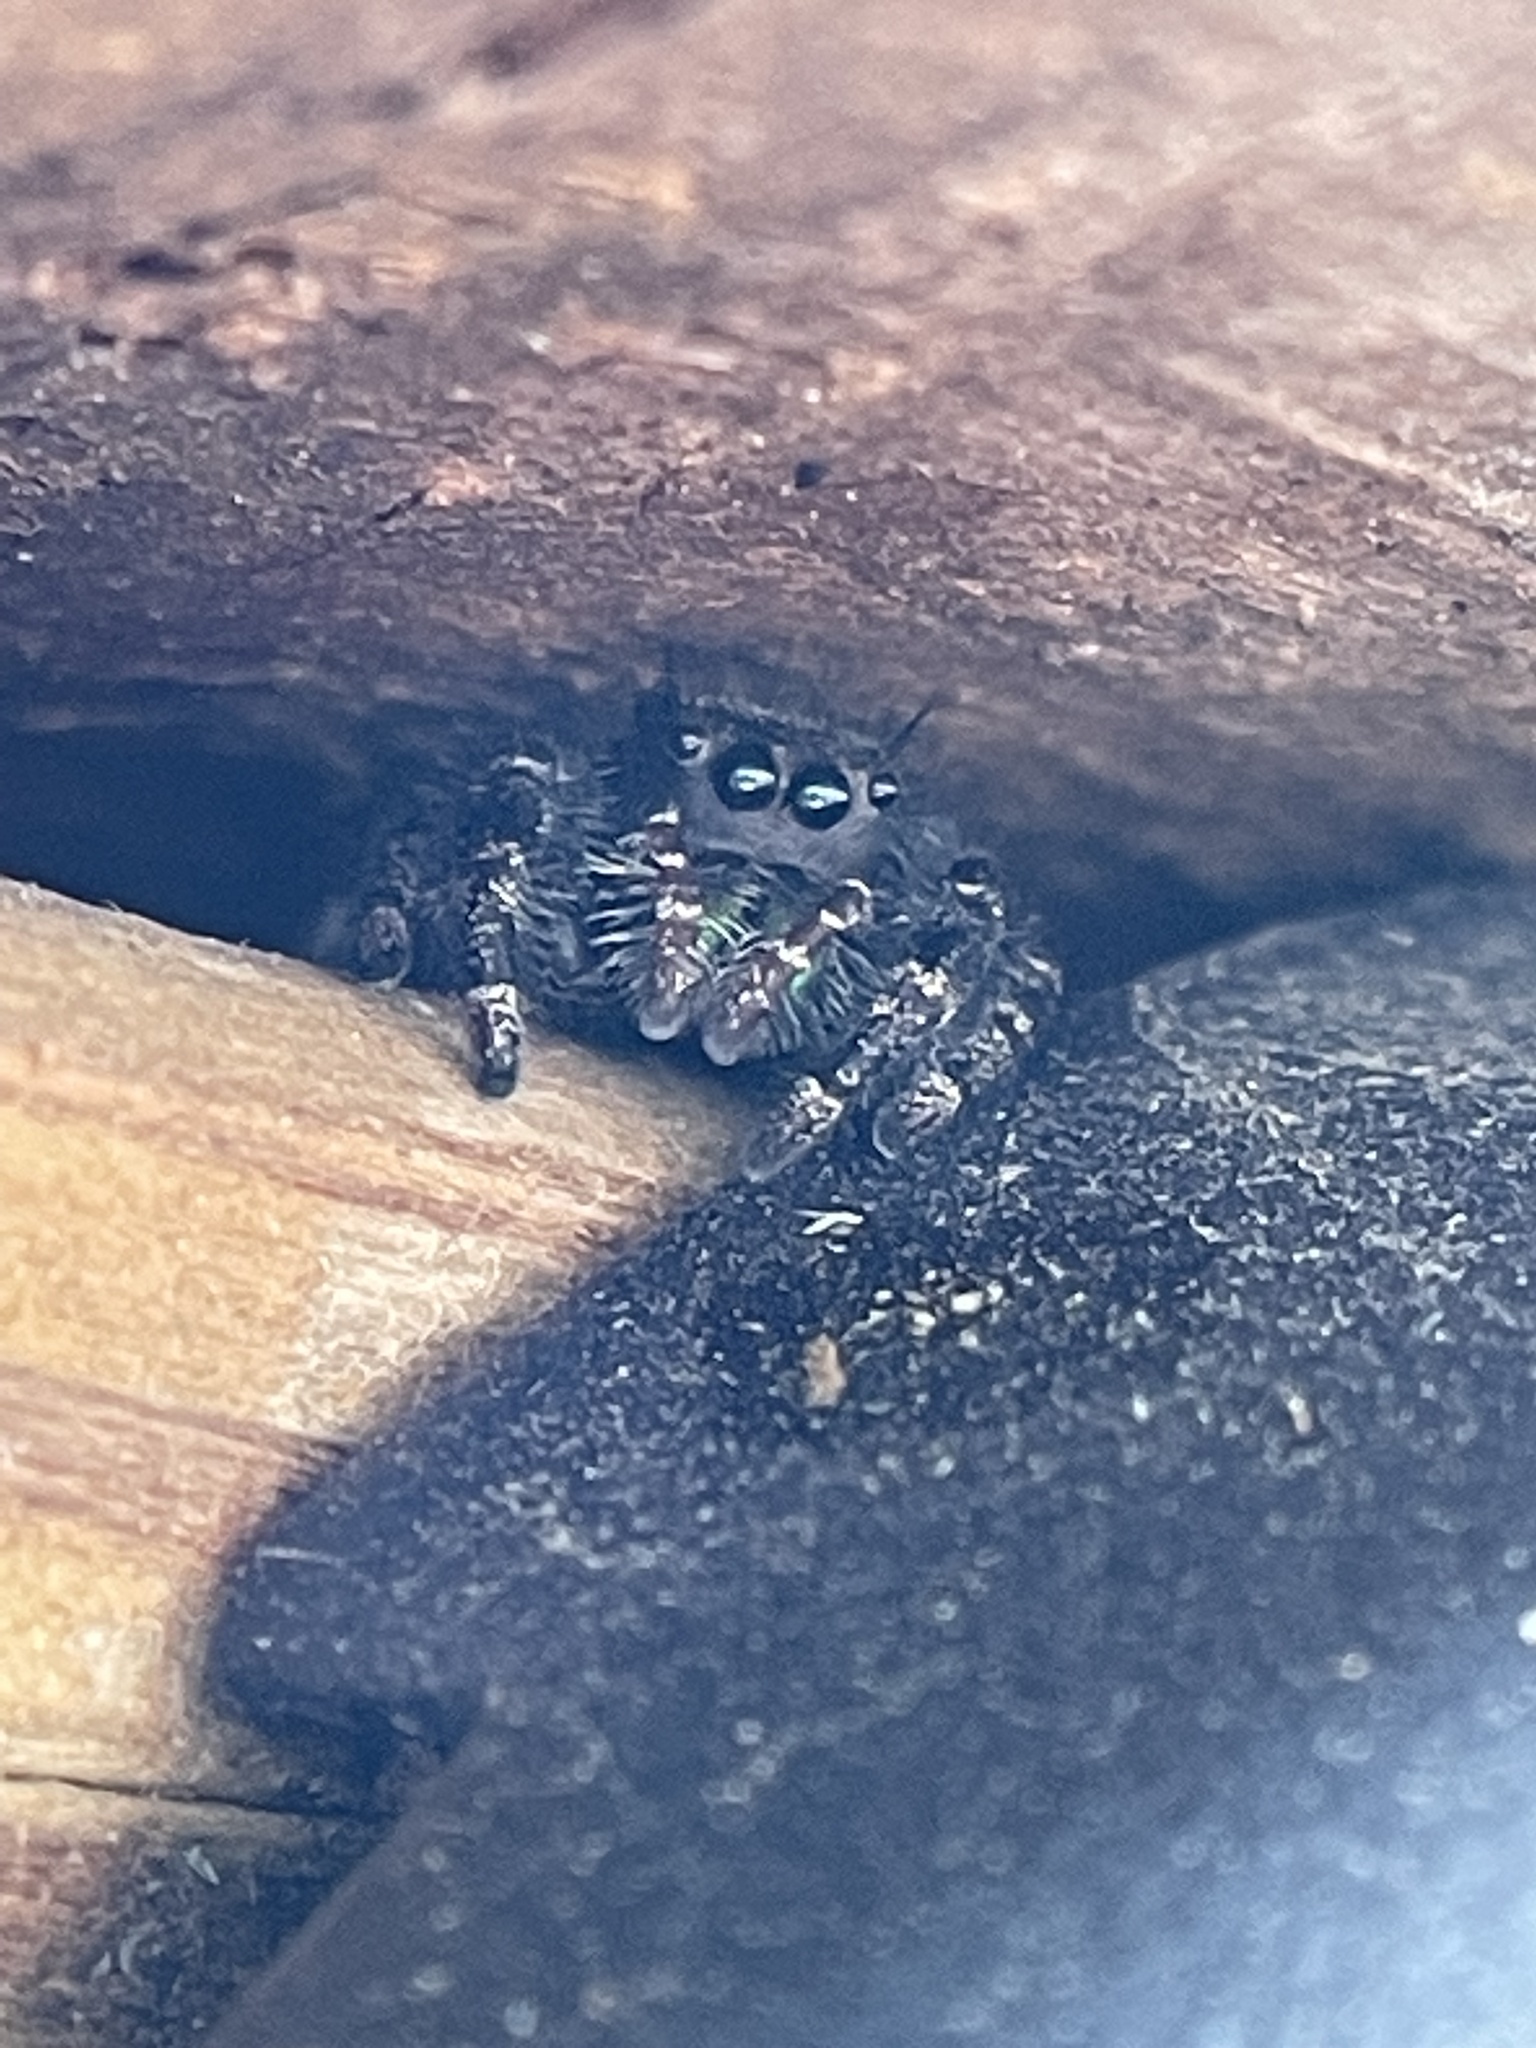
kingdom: Animalia
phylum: Arthropoda
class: Arachnida
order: Araneae
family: Salticidae
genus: Phidippus
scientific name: Phidippus audax
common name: Bold jumper
